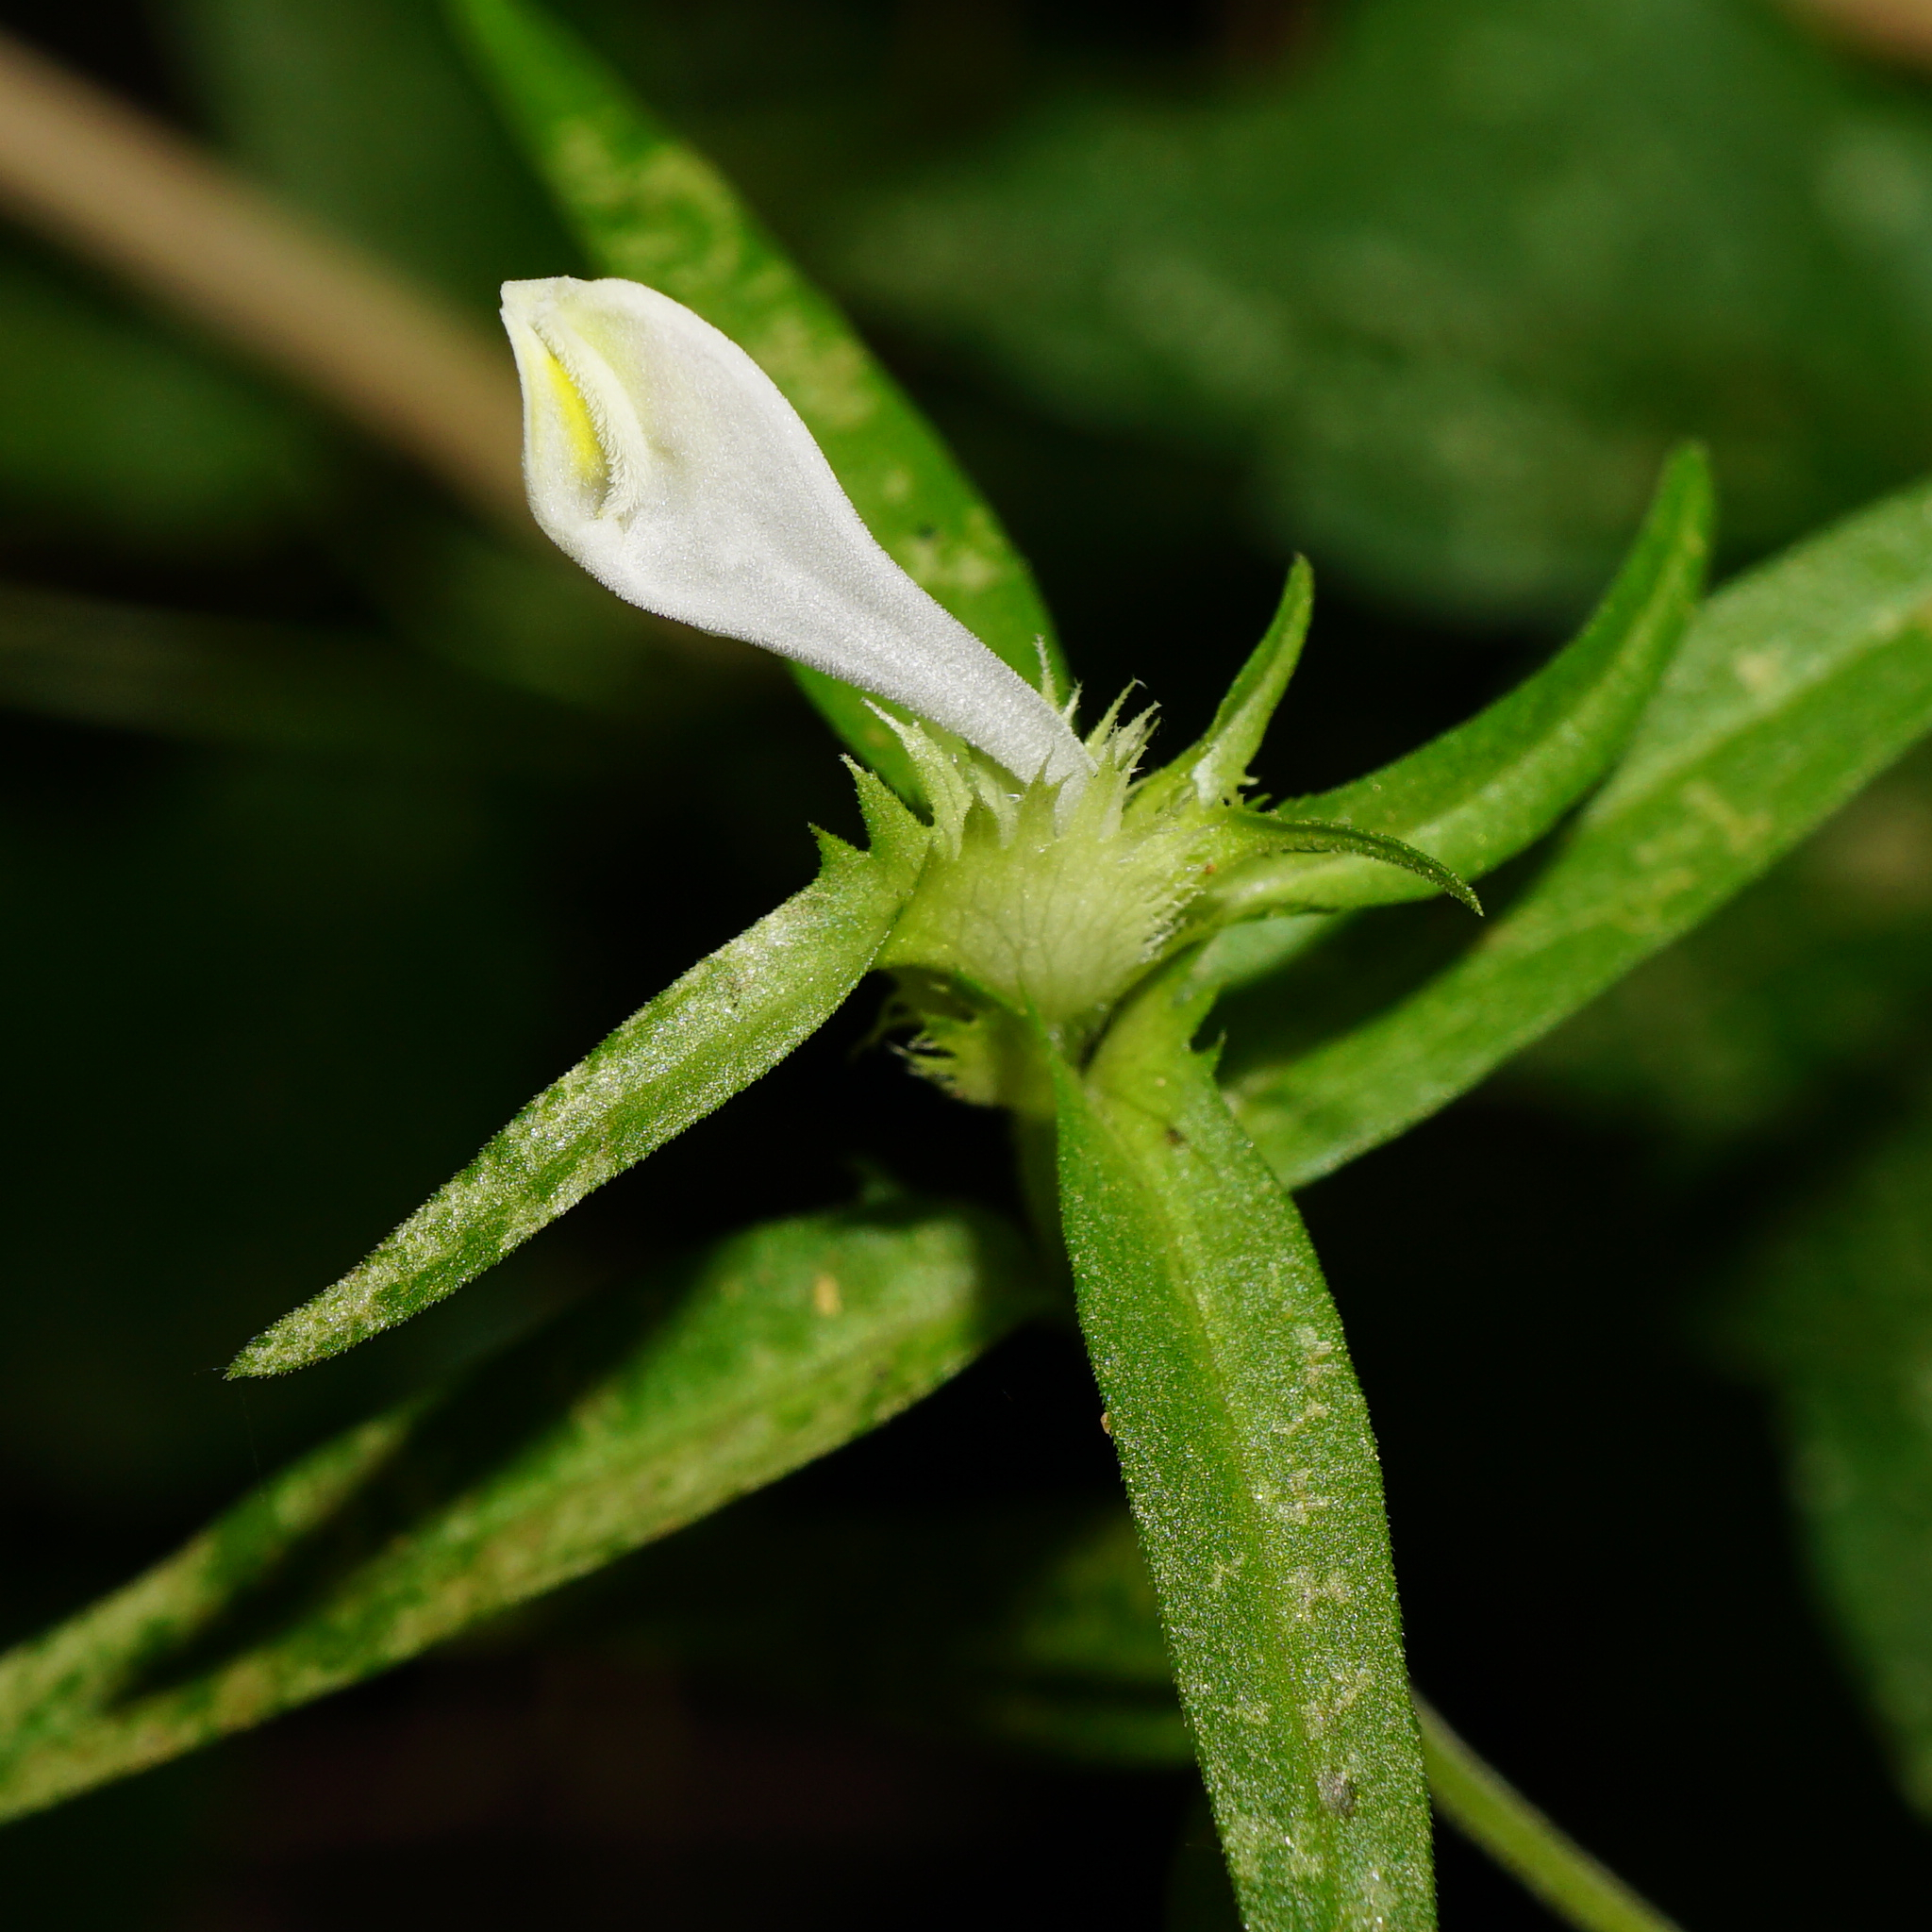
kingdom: Plantae
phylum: Tracheophyta
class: Magnoliopsida
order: Lamiales
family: Orobanchaceae
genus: Melampyrum
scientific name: Melampyrum cristatum
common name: Crested cow-wheat
